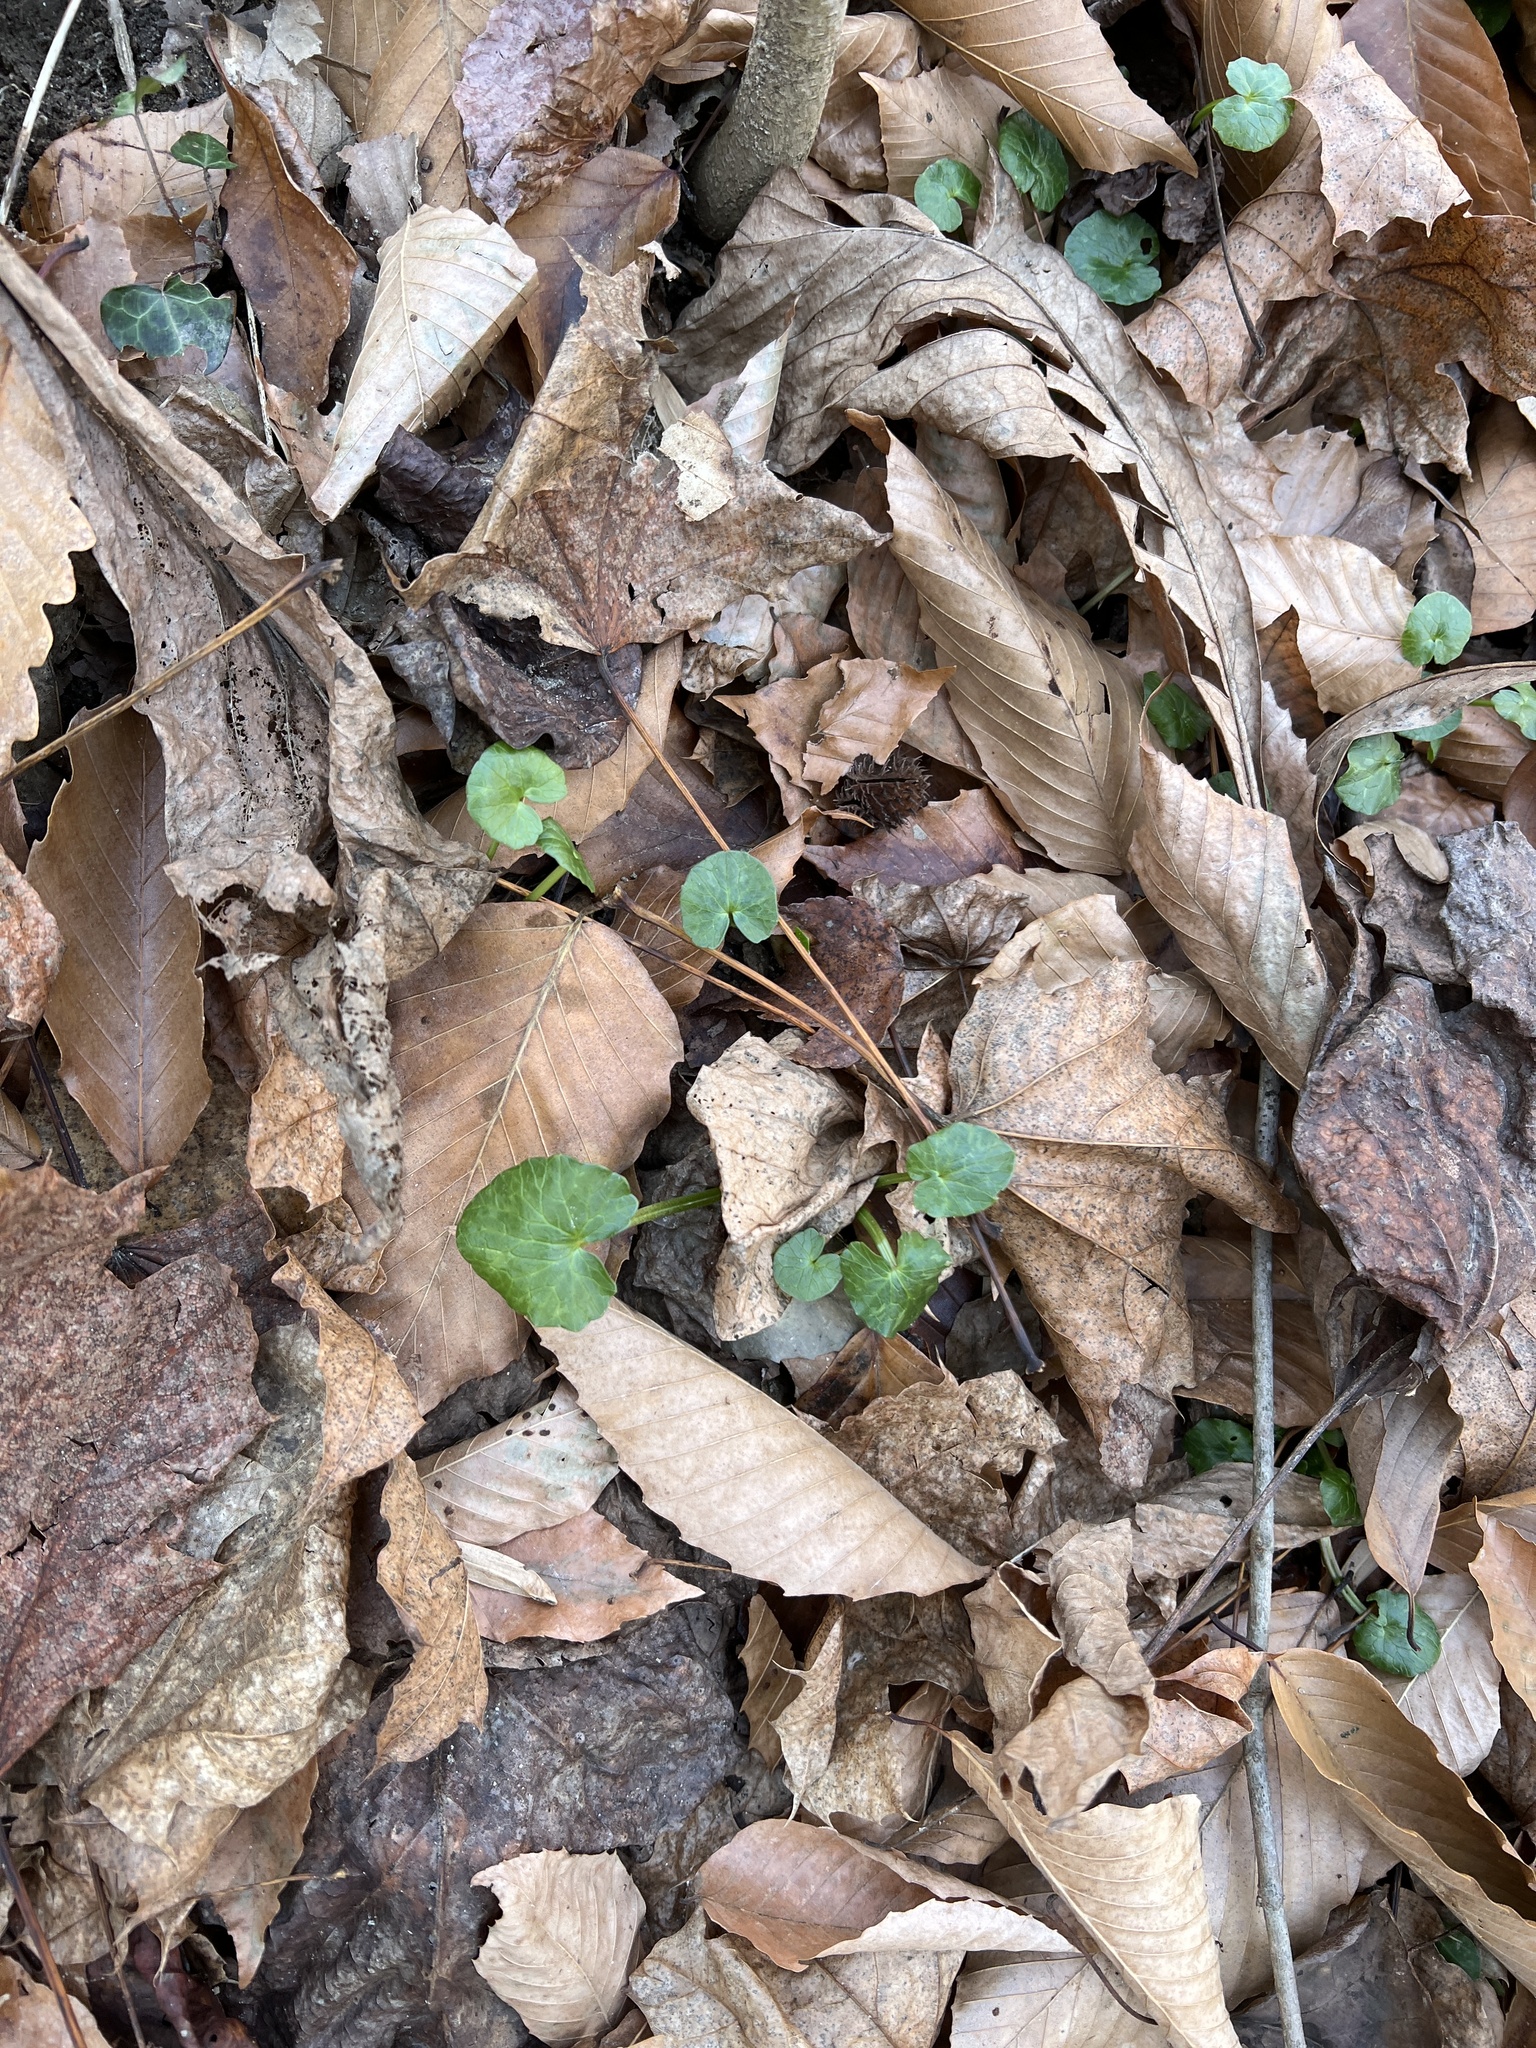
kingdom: Plantae
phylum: Tracheophyta
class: Magnoliopsida
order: Ranunculales
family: Ranunculaceae
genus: Ficaria
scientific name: Ficaria verna
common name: Lesser celandine
